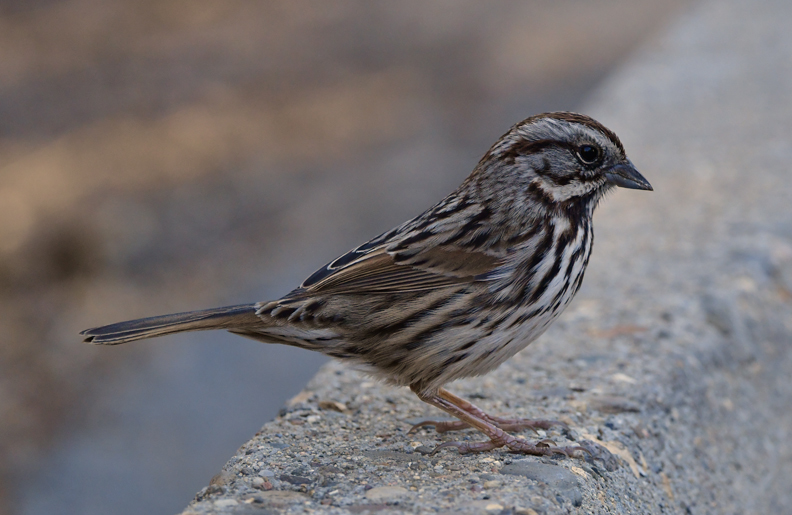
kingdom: Animalia
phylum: Chordata
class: Aves
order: Passeriformes
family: Passerellidae
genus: Melospiza
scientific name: Melospiza melodia
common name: Song sparrow
